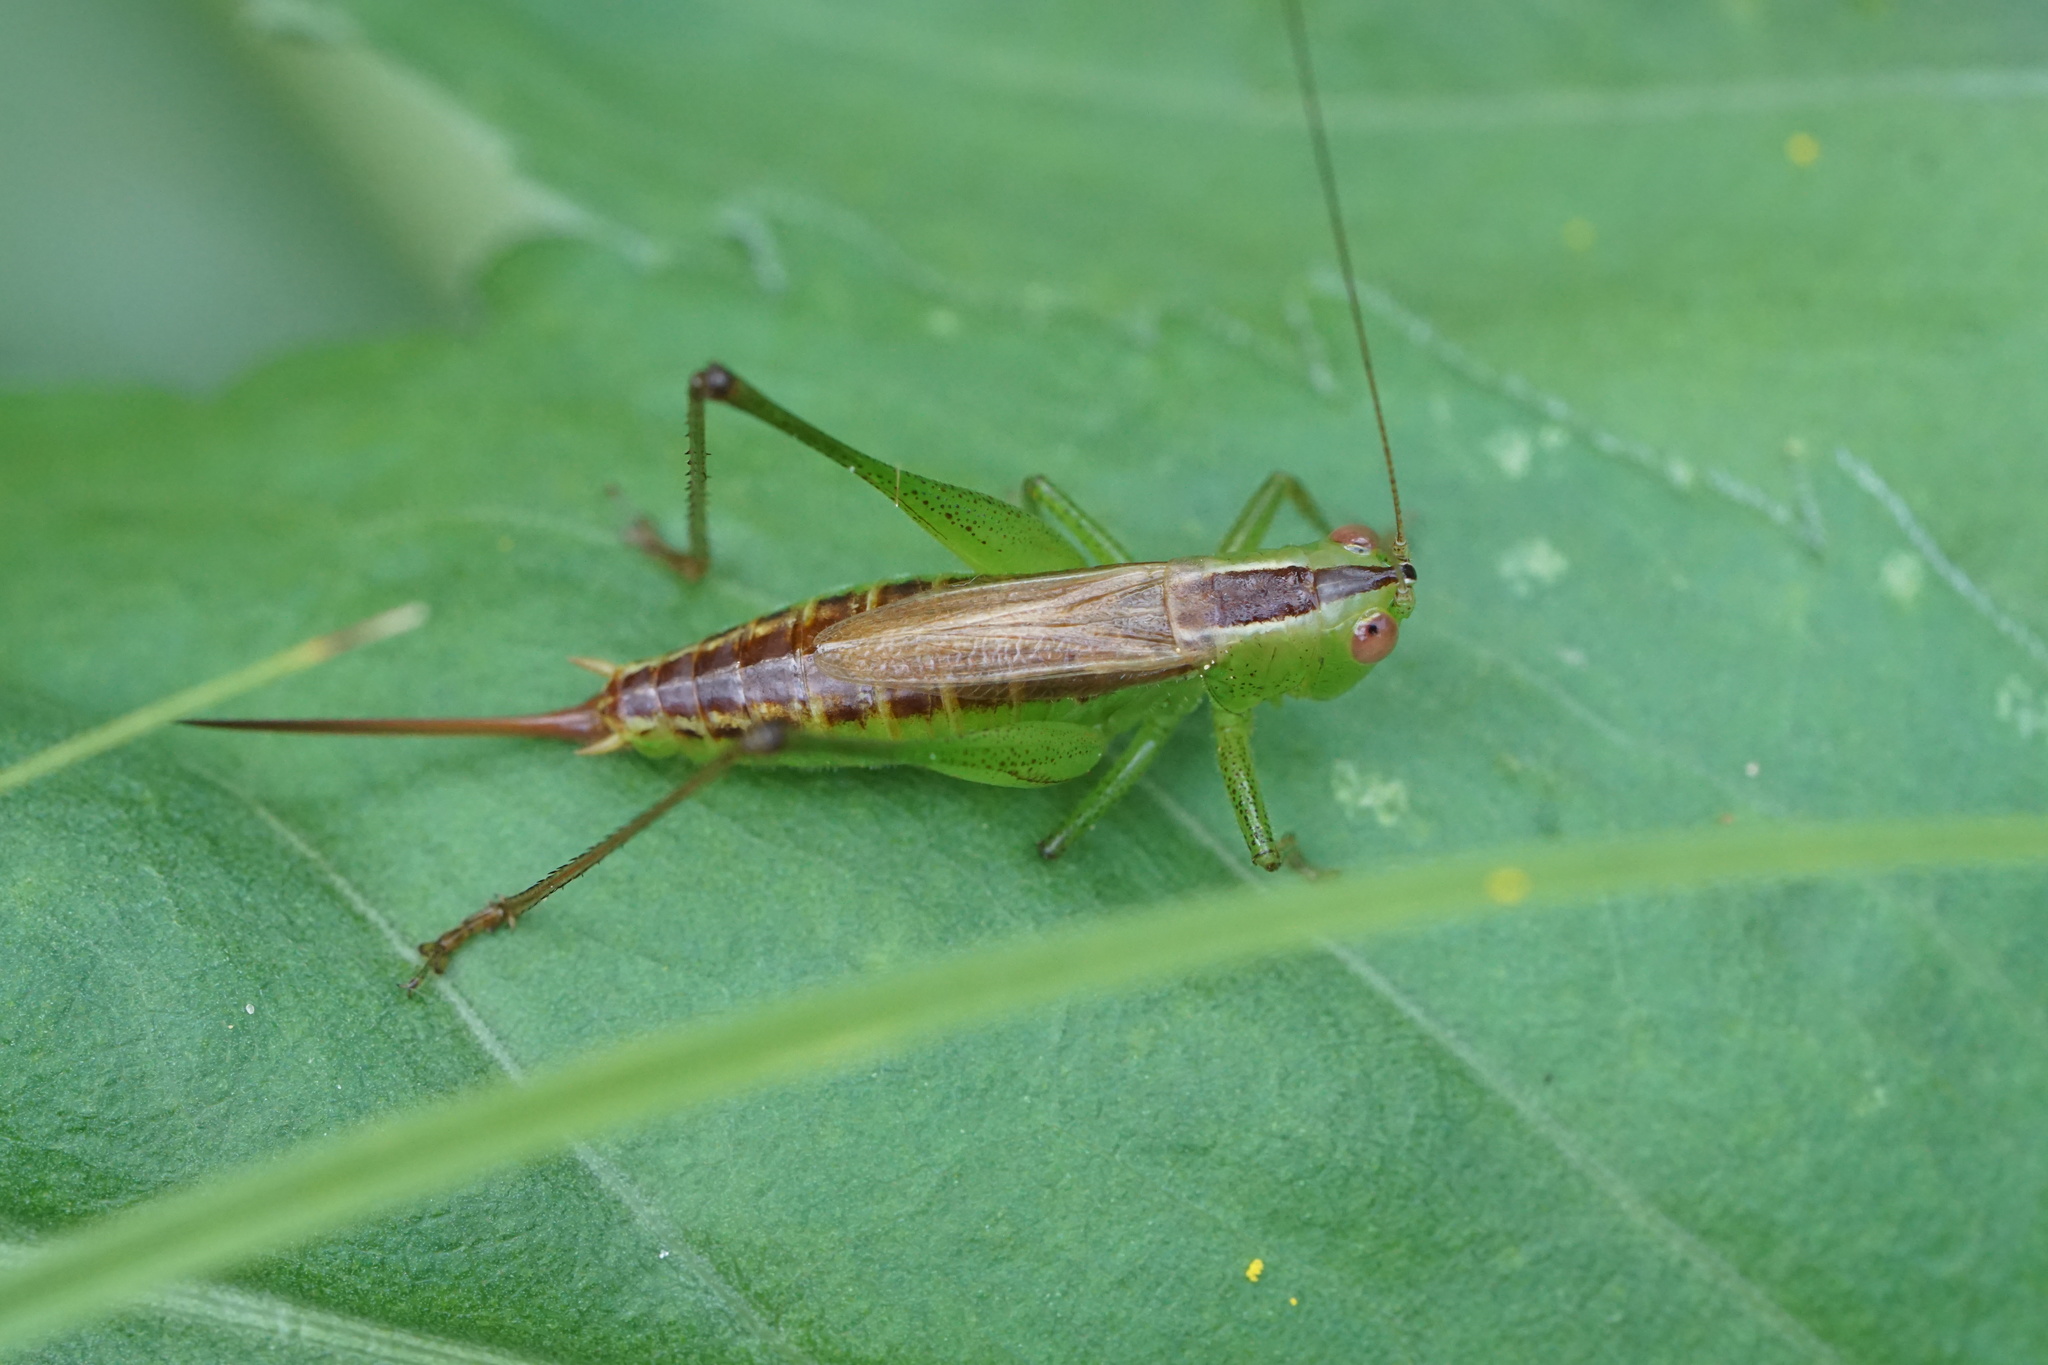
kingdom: Animalia
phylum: Arthropoda
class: Insecta
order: Orthoptera
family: Tettigoniidae
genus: Conocephalus
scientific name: Conocephalus brevipennis
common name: Short-winged meadow katydid
